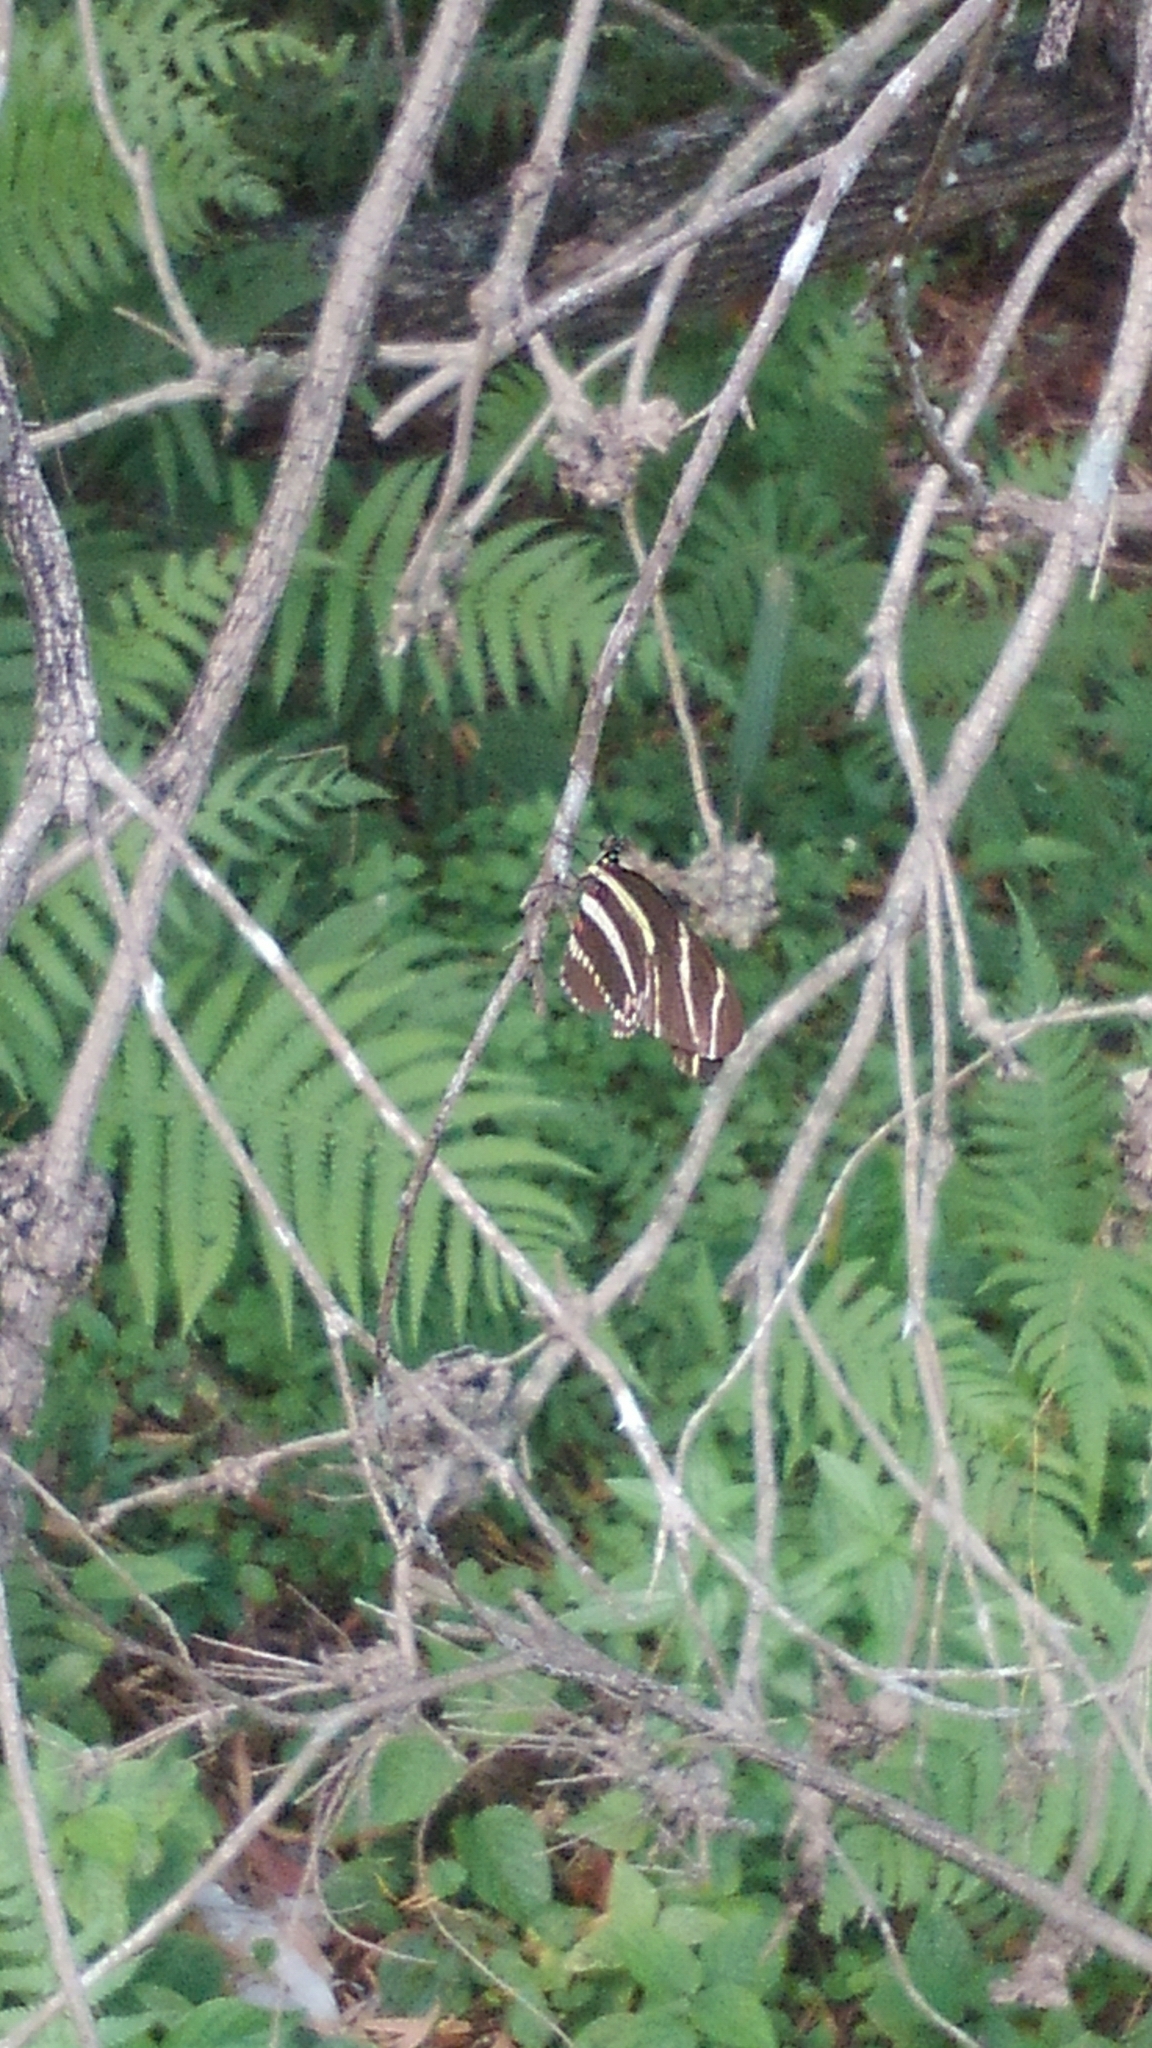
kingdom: Animalia
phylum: Arthropoda
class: Insecta
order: Lepidoptera
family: Nymphalidae
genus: Heliconius
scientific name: Heliconius charithonia
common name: Zebra long wing
